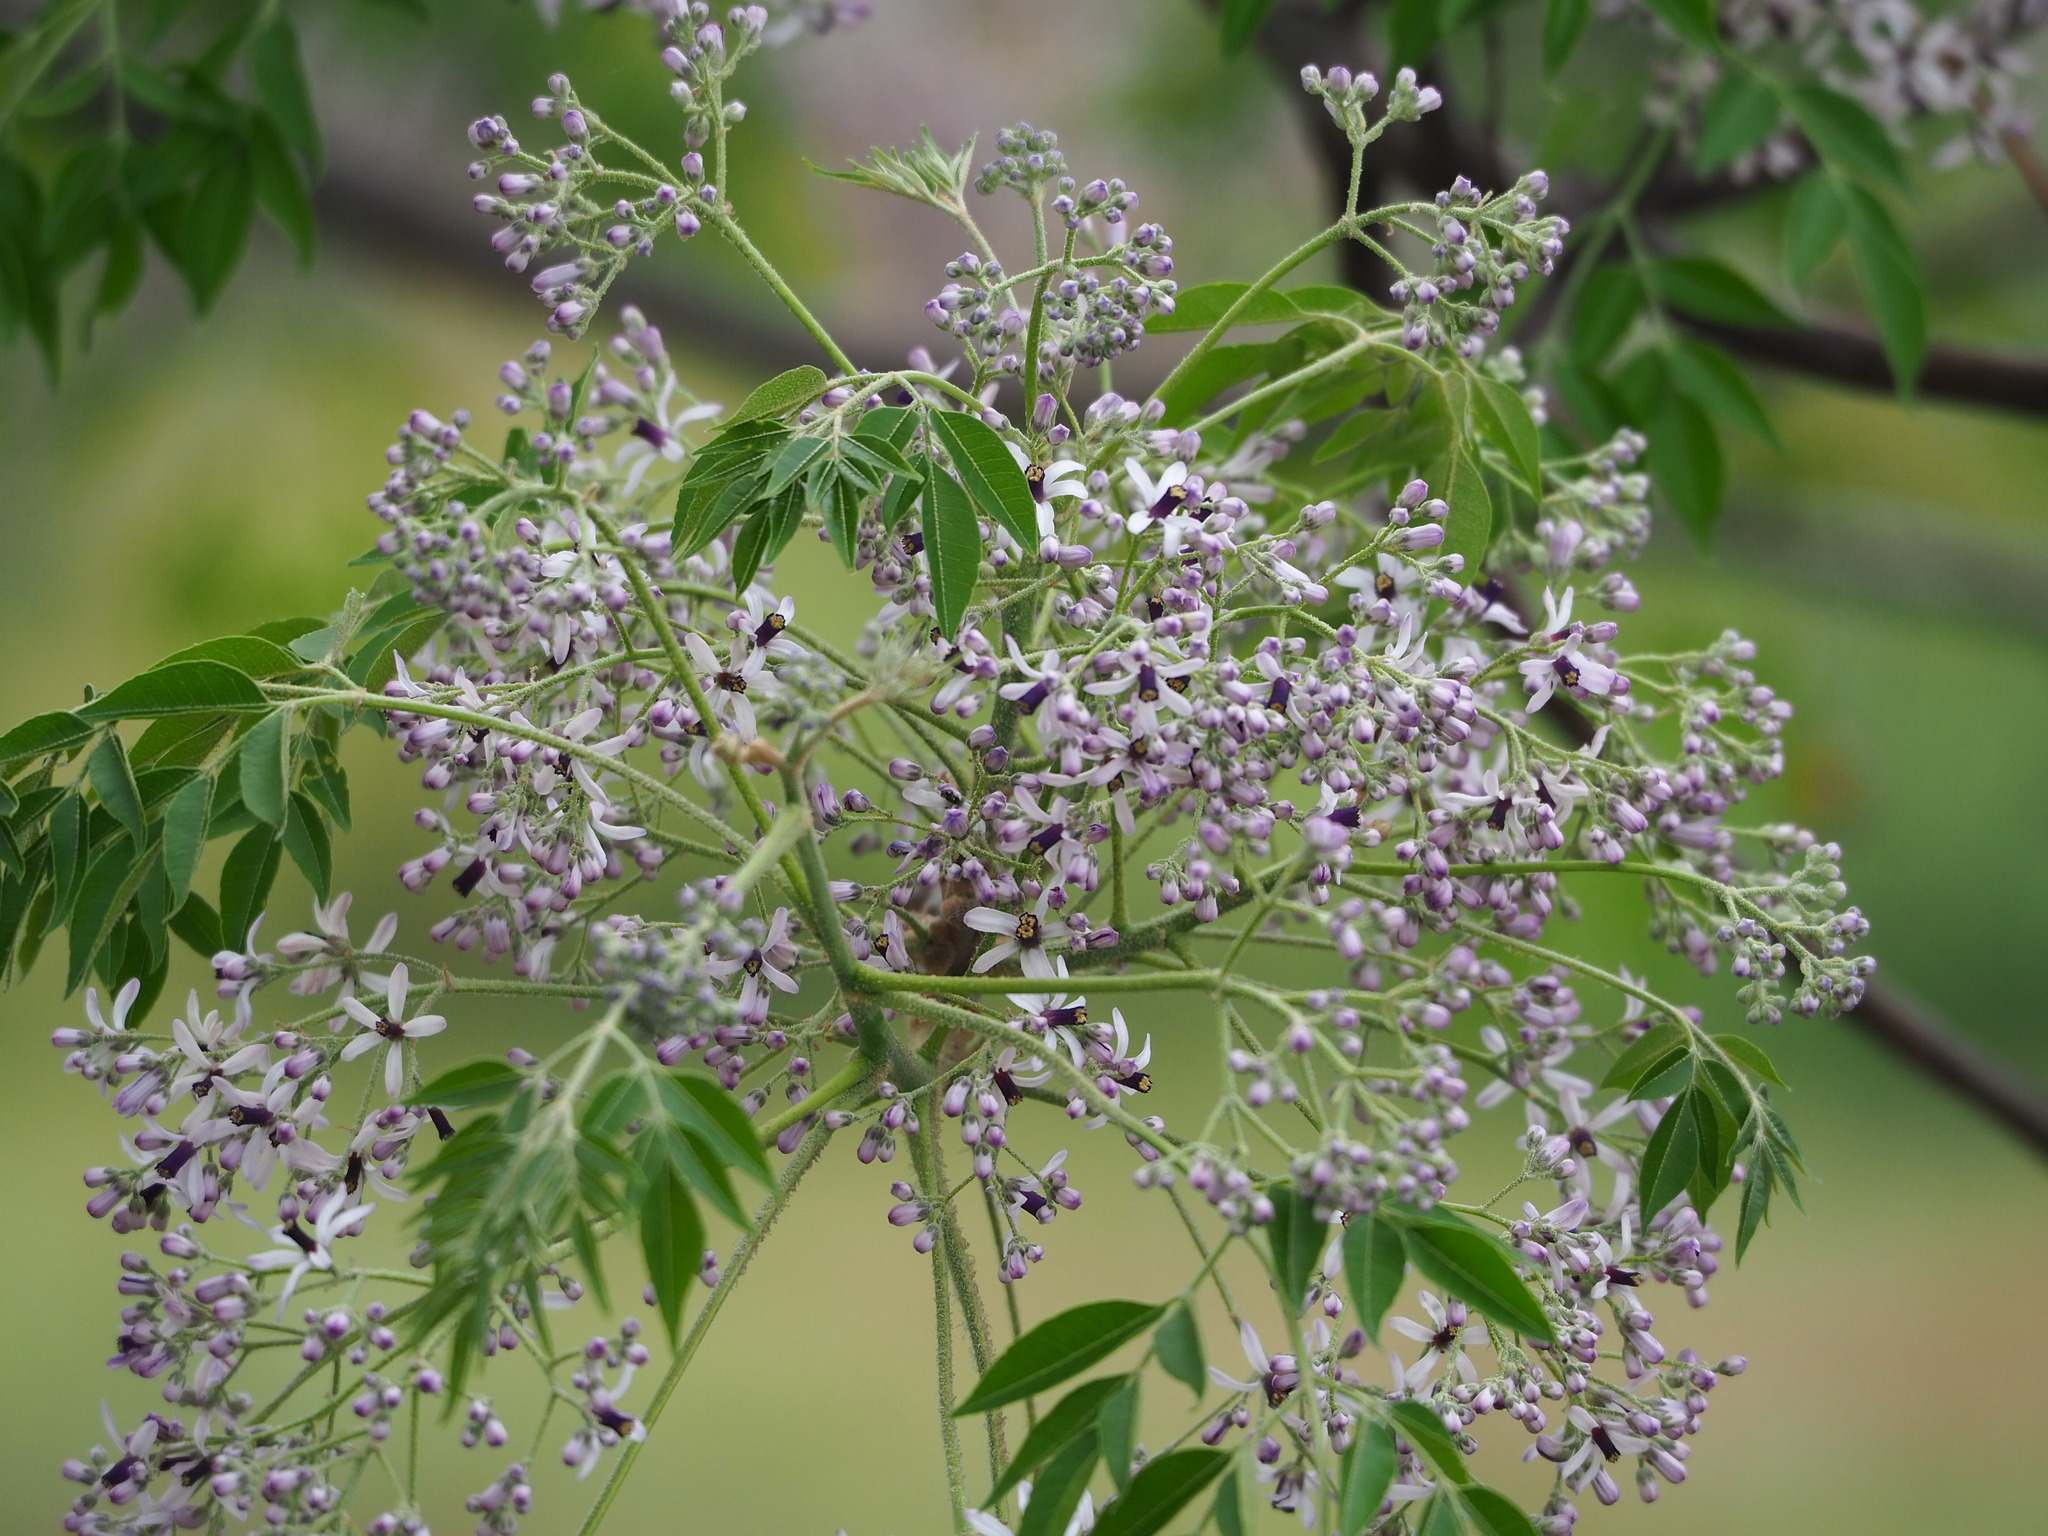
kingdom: Plantae
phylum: Tracheophyta
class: Magnoliopsida
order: Sapindales
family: Meliaceae
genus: Melia
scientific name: Melia azedarach
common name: Chinaberrytree
